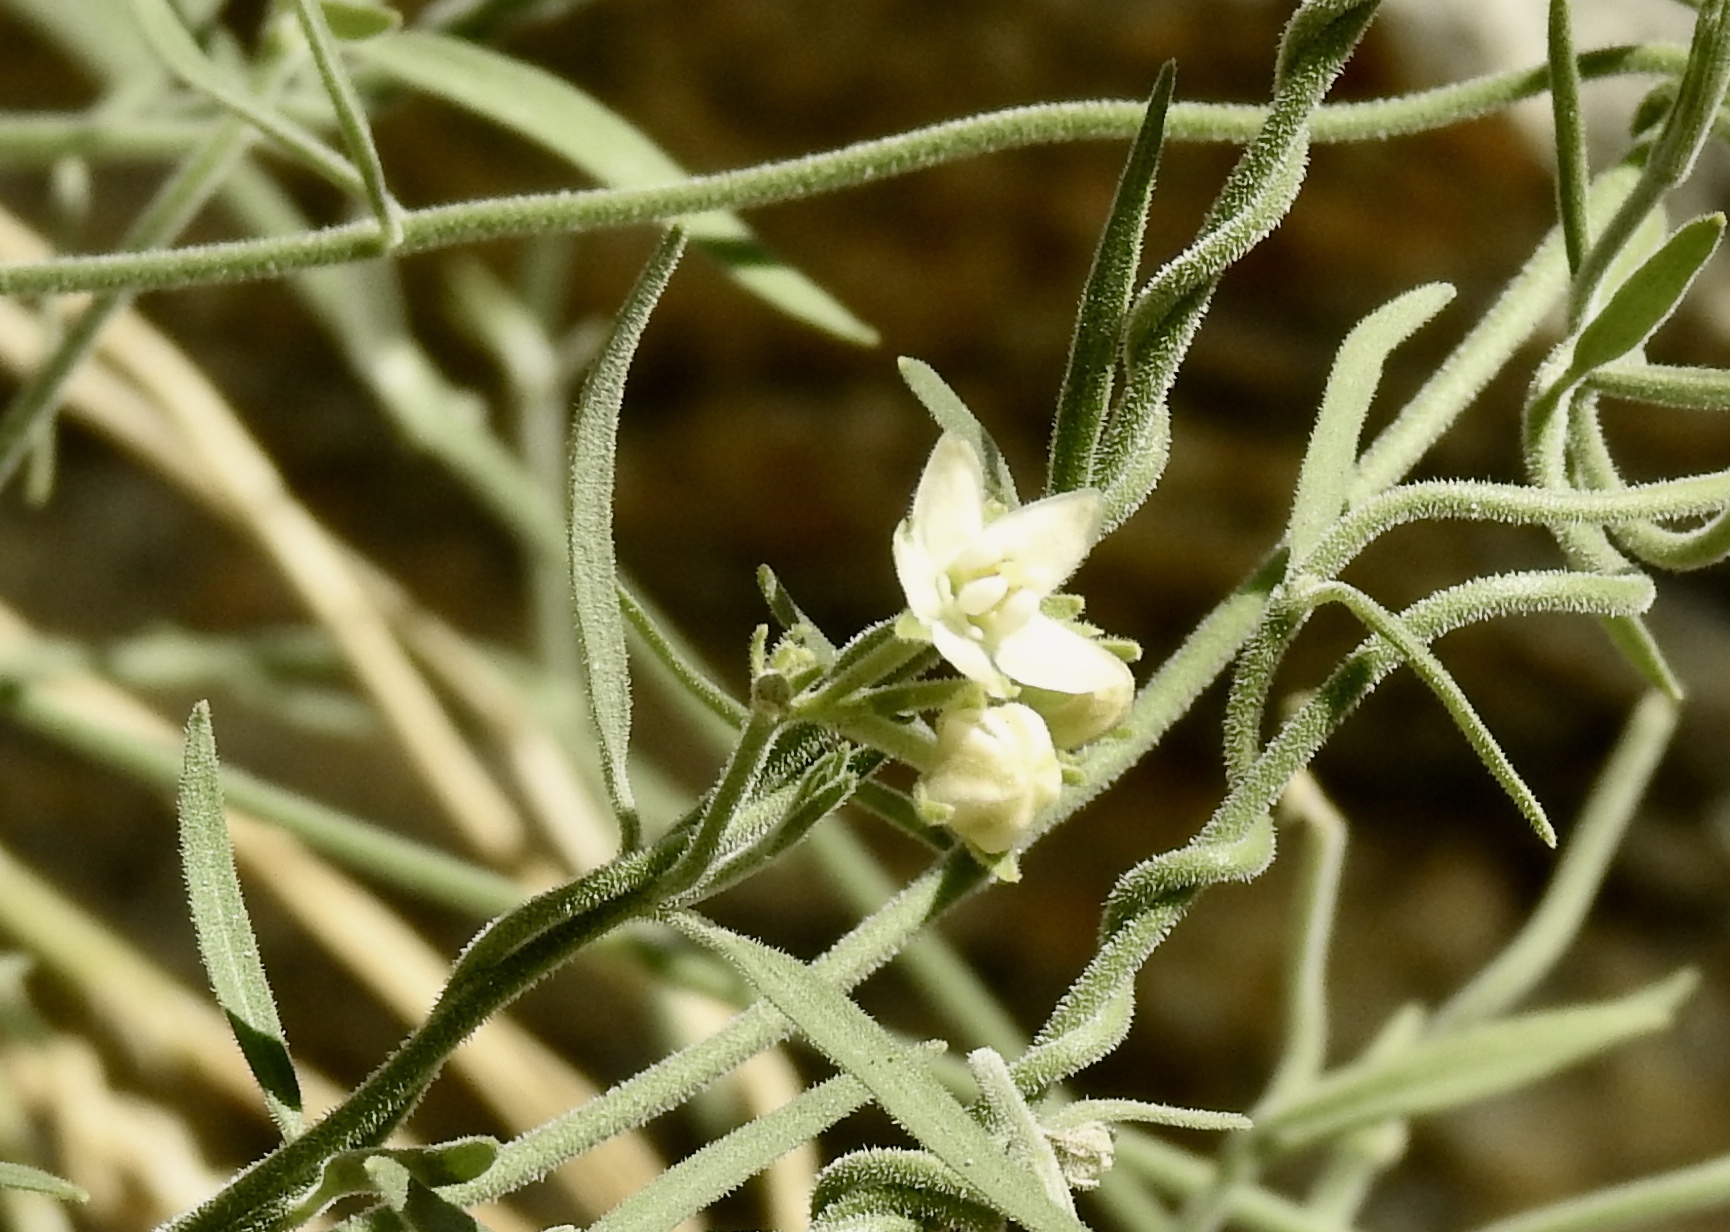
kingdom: Plantae
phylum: Tracheophyta
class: Magnoliopsida
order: Gentianales
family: Apocynaceae
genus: Funastrum
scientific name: Funastrum hirtellum
